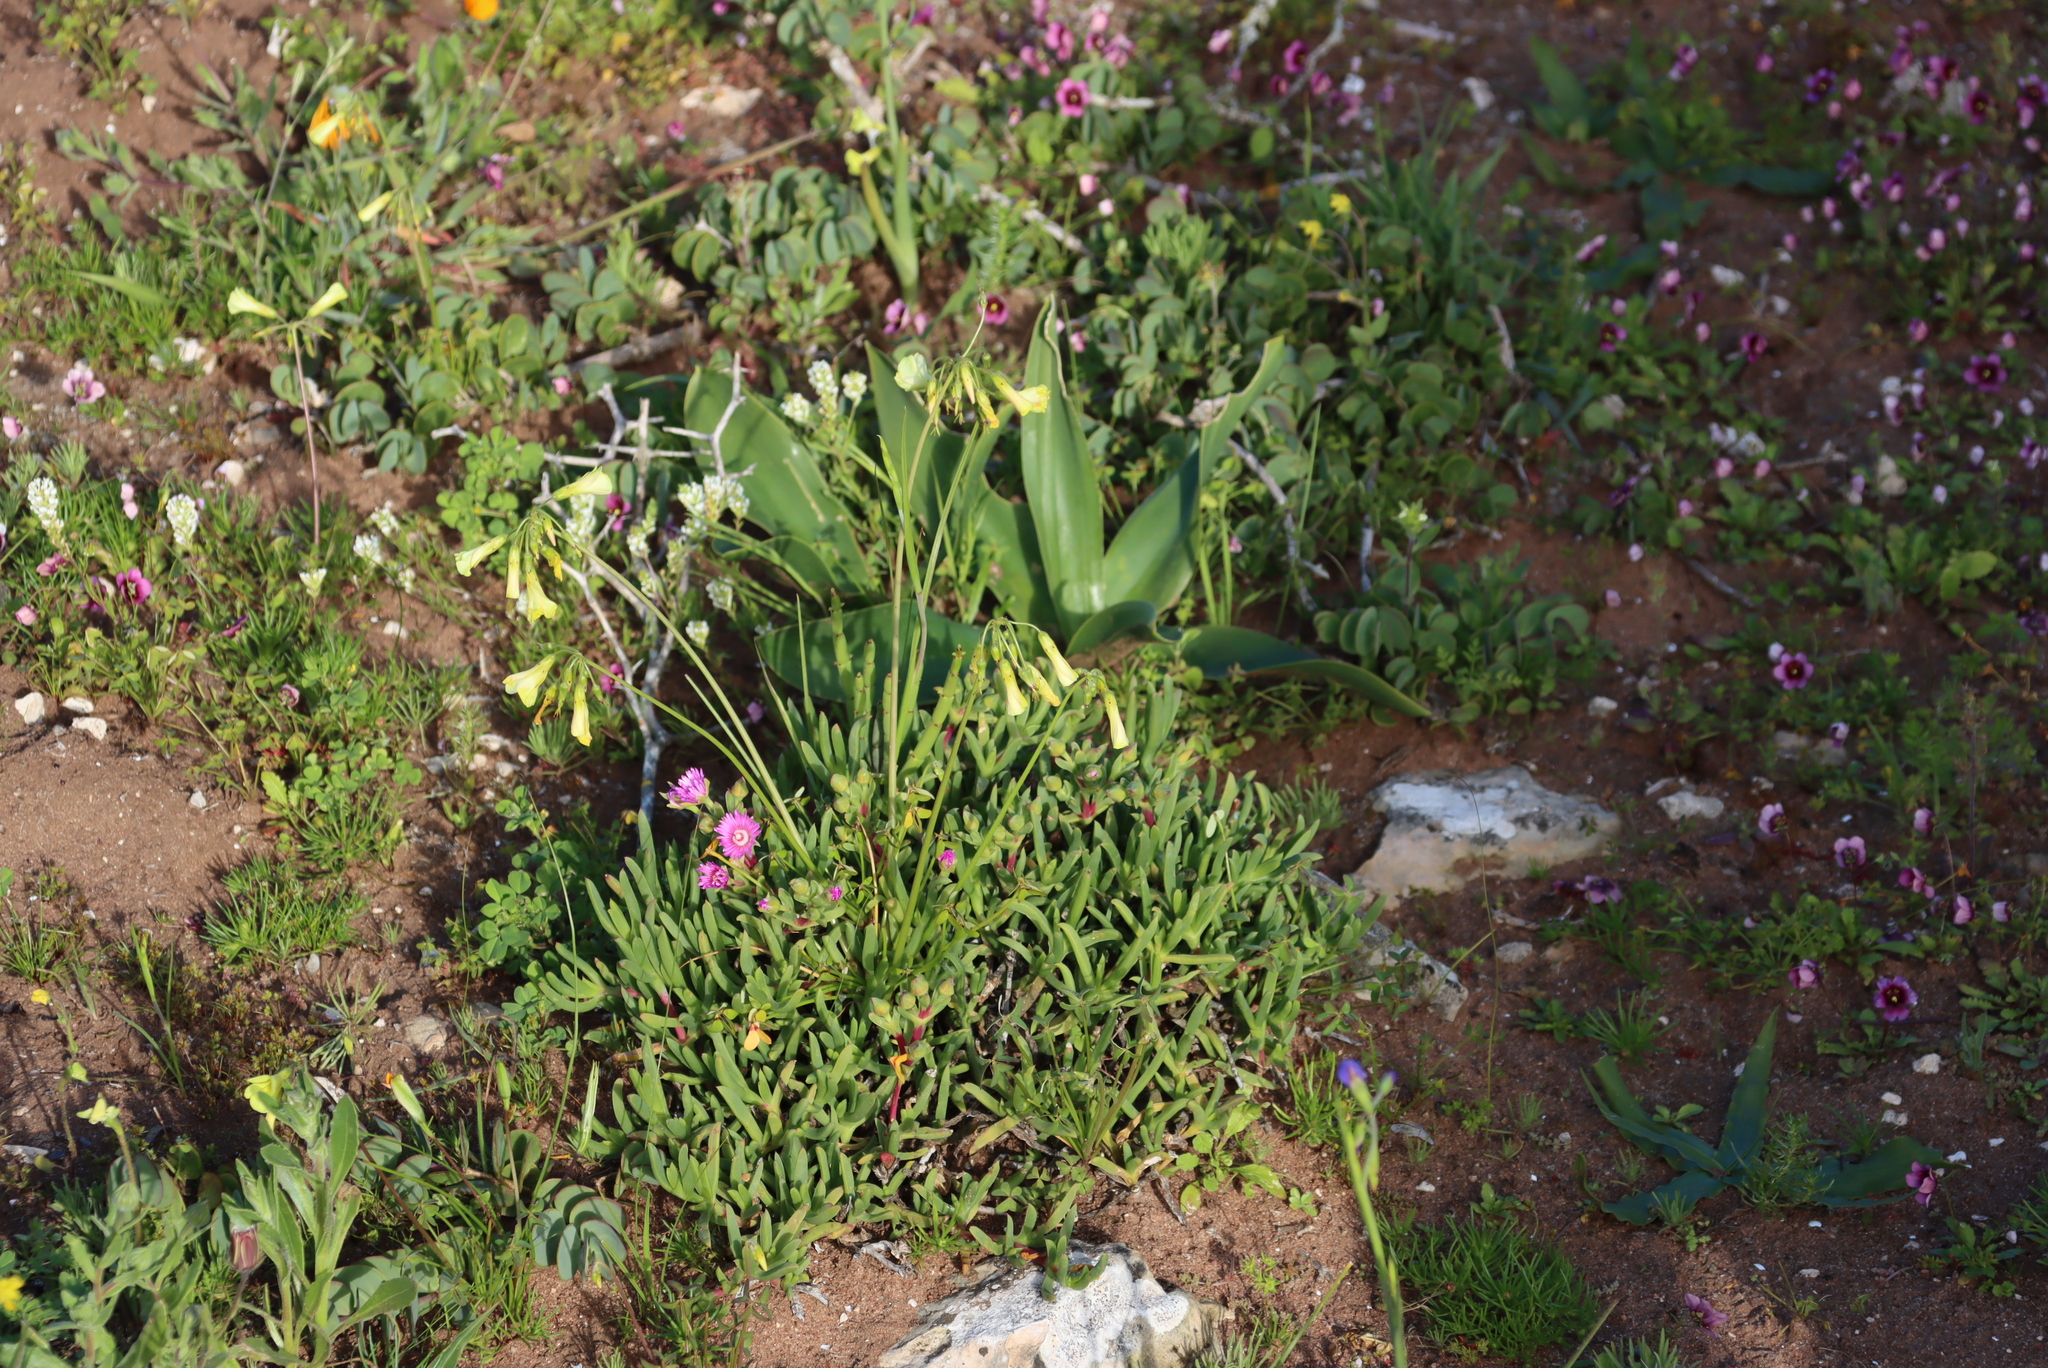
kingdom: Plantae
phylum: Tracheophyta
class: Liliopsida
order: Asparagales
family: Asparagaceae
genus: Drimia
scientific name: Drimia capensis
